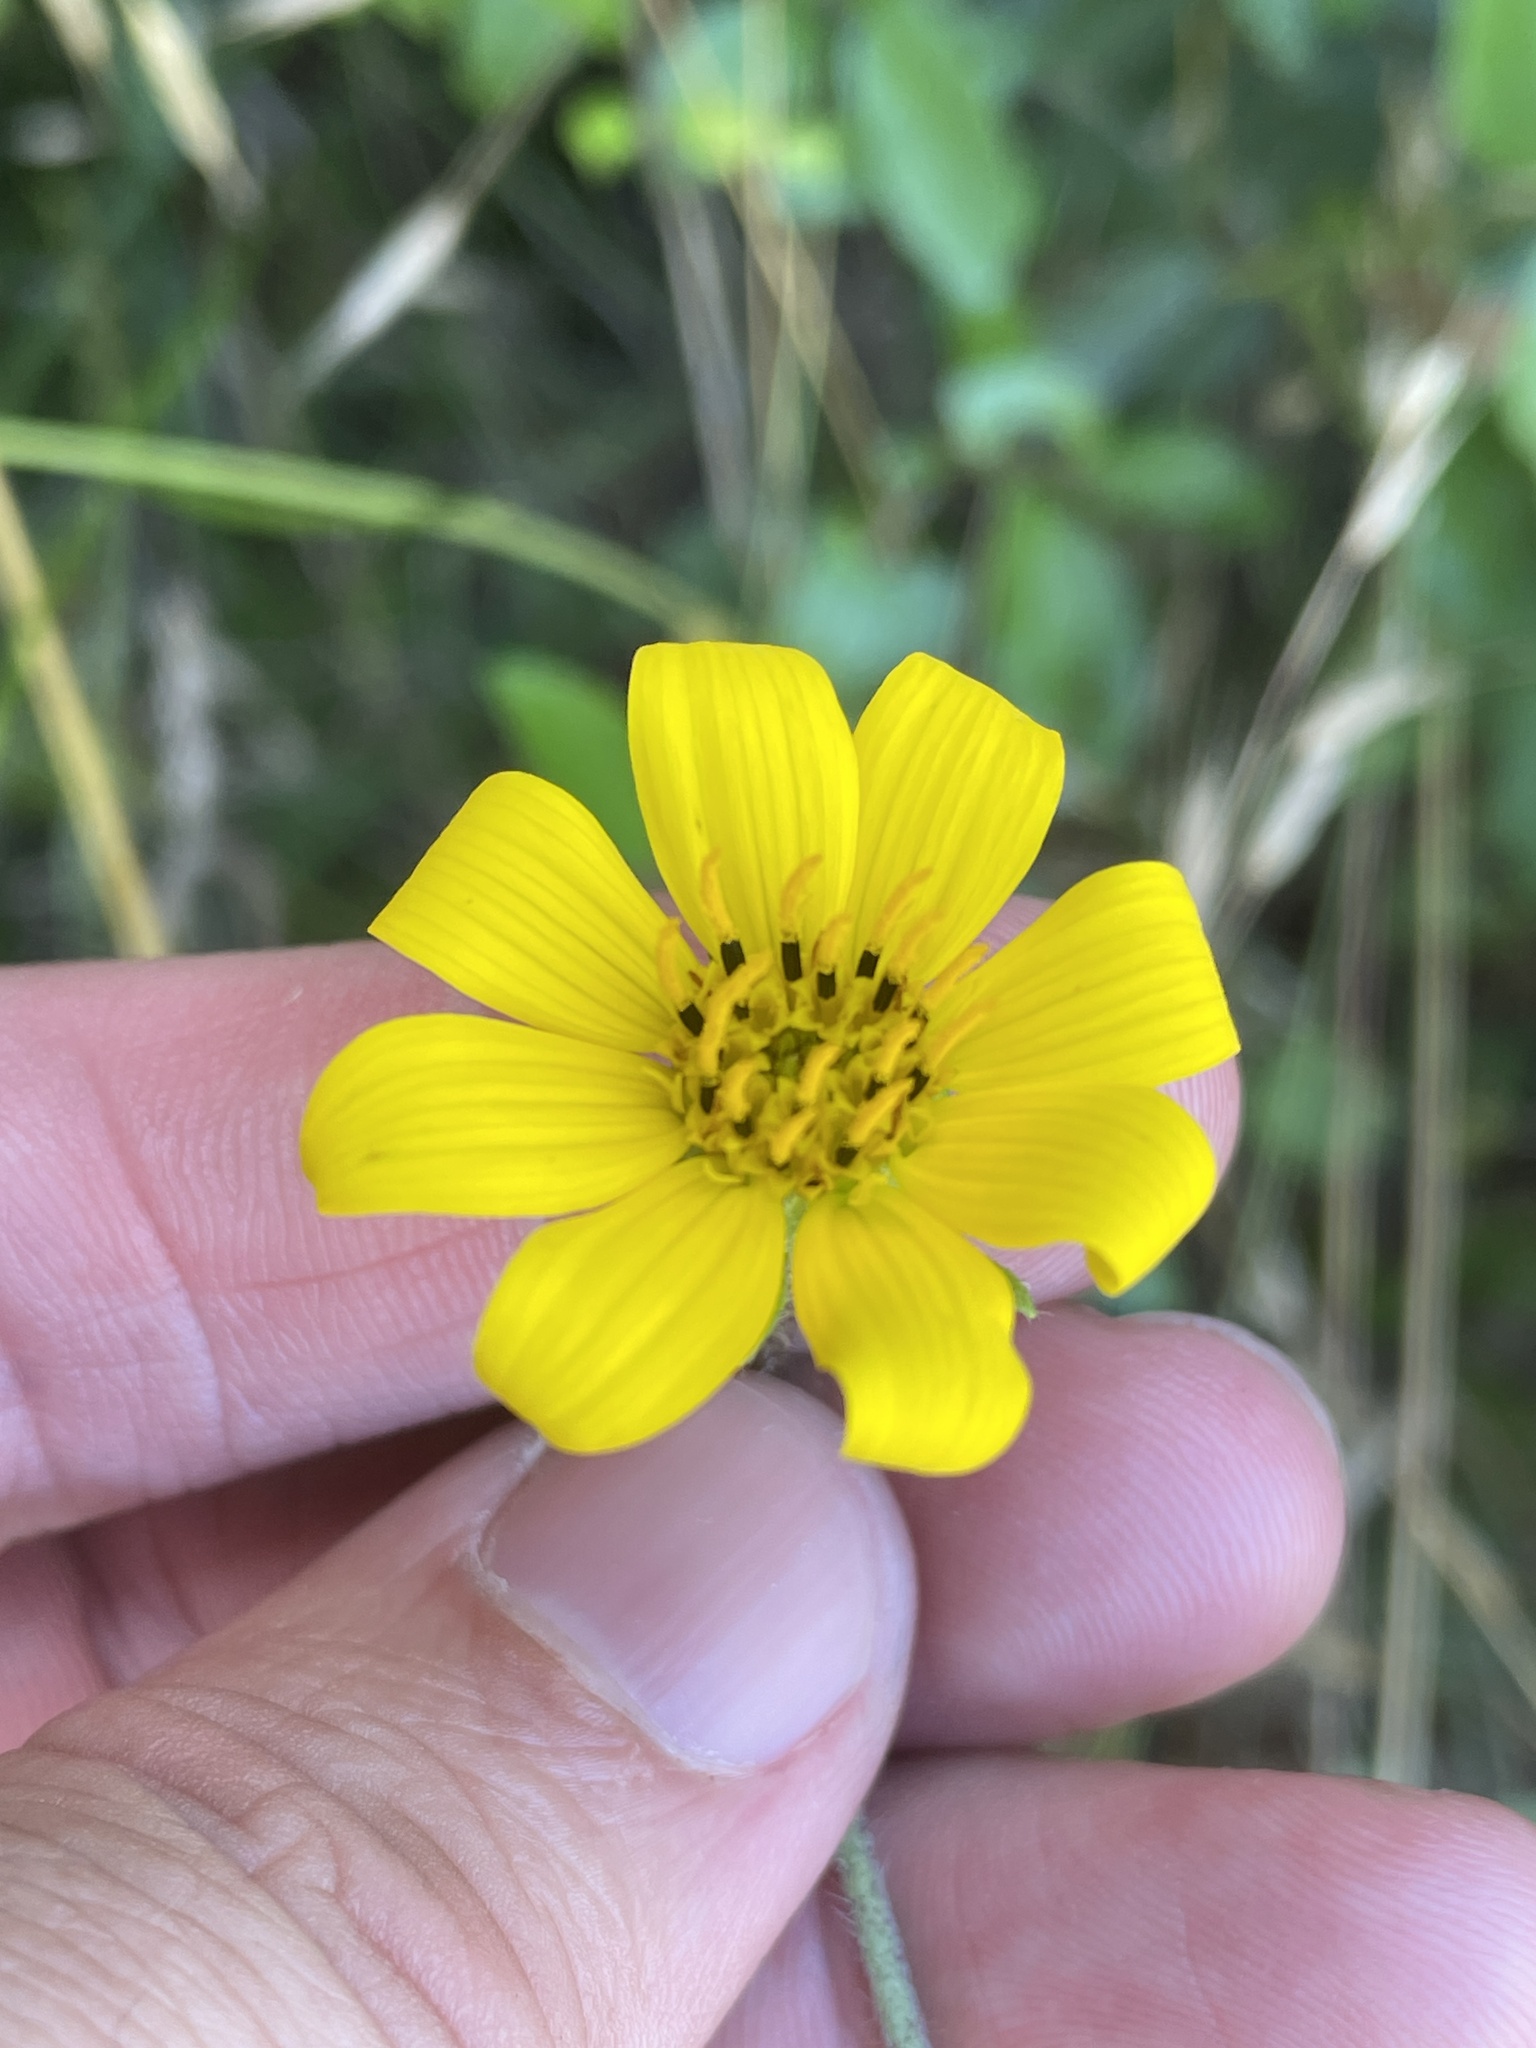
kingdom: Plantae
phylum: Tracheophyta
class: Magnoliopsida
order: Asterales
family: Asteraceae
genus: Engelmannia
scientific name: Engelmannia peristenia
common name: Engelmann's daisy
